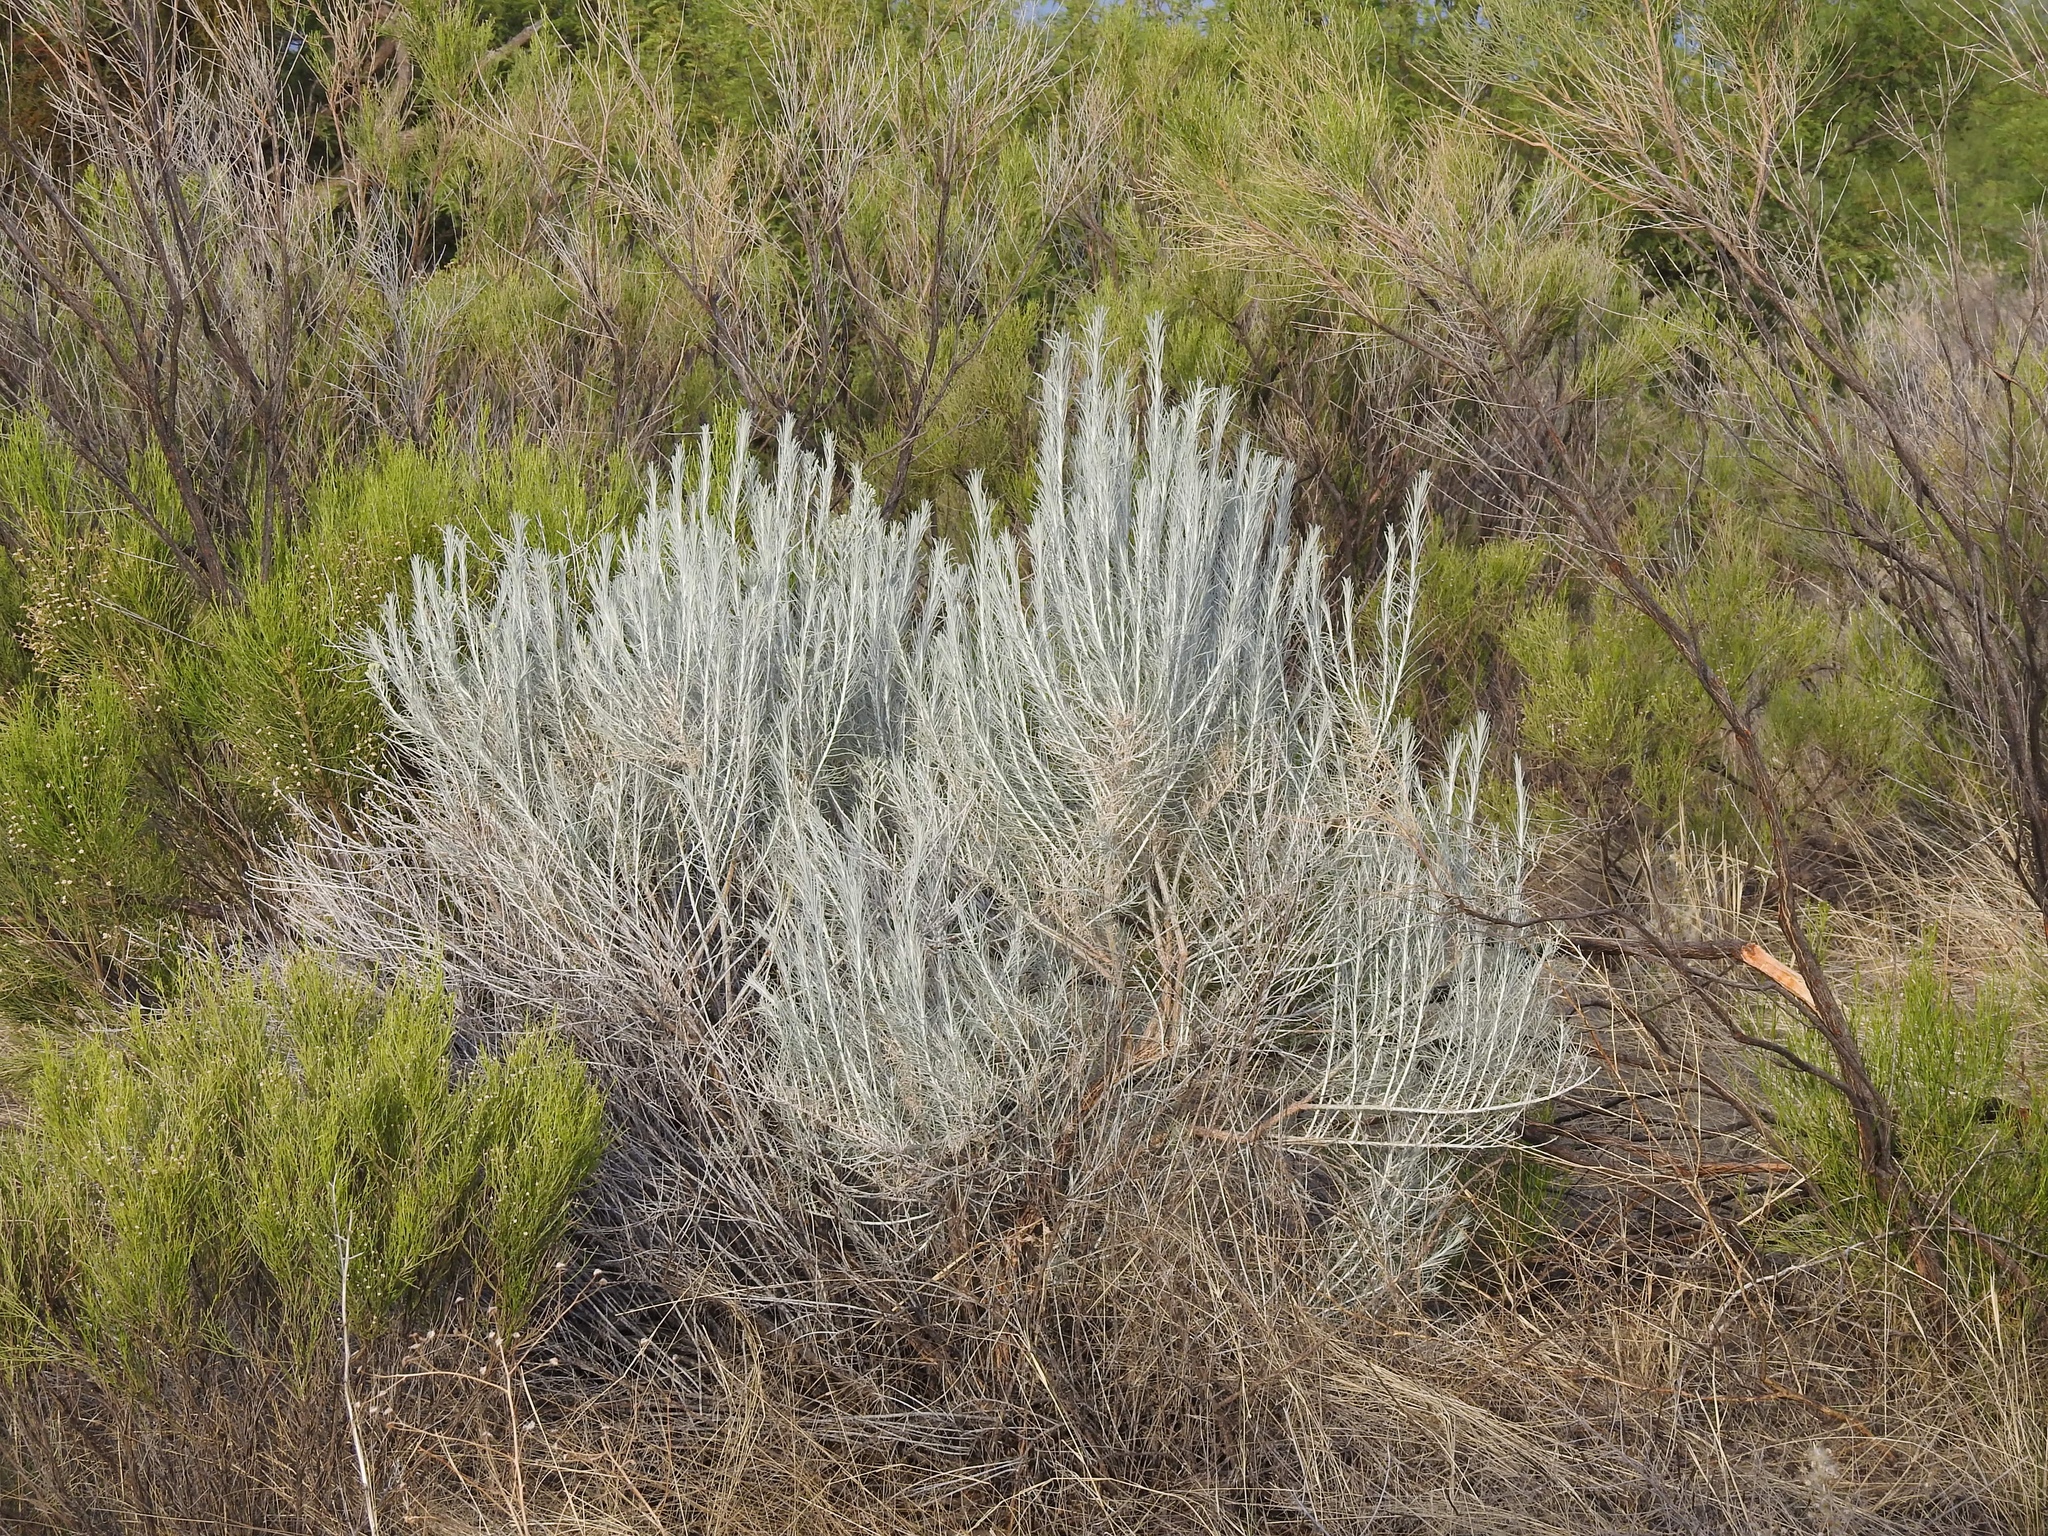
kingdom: Plantae
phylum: Tracheophyta
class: Magnoliopsida
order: Asterales
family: Asteraceae
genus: Ericameria
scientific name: Ericameria nauseosa
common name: Rubber rabbitbrush
